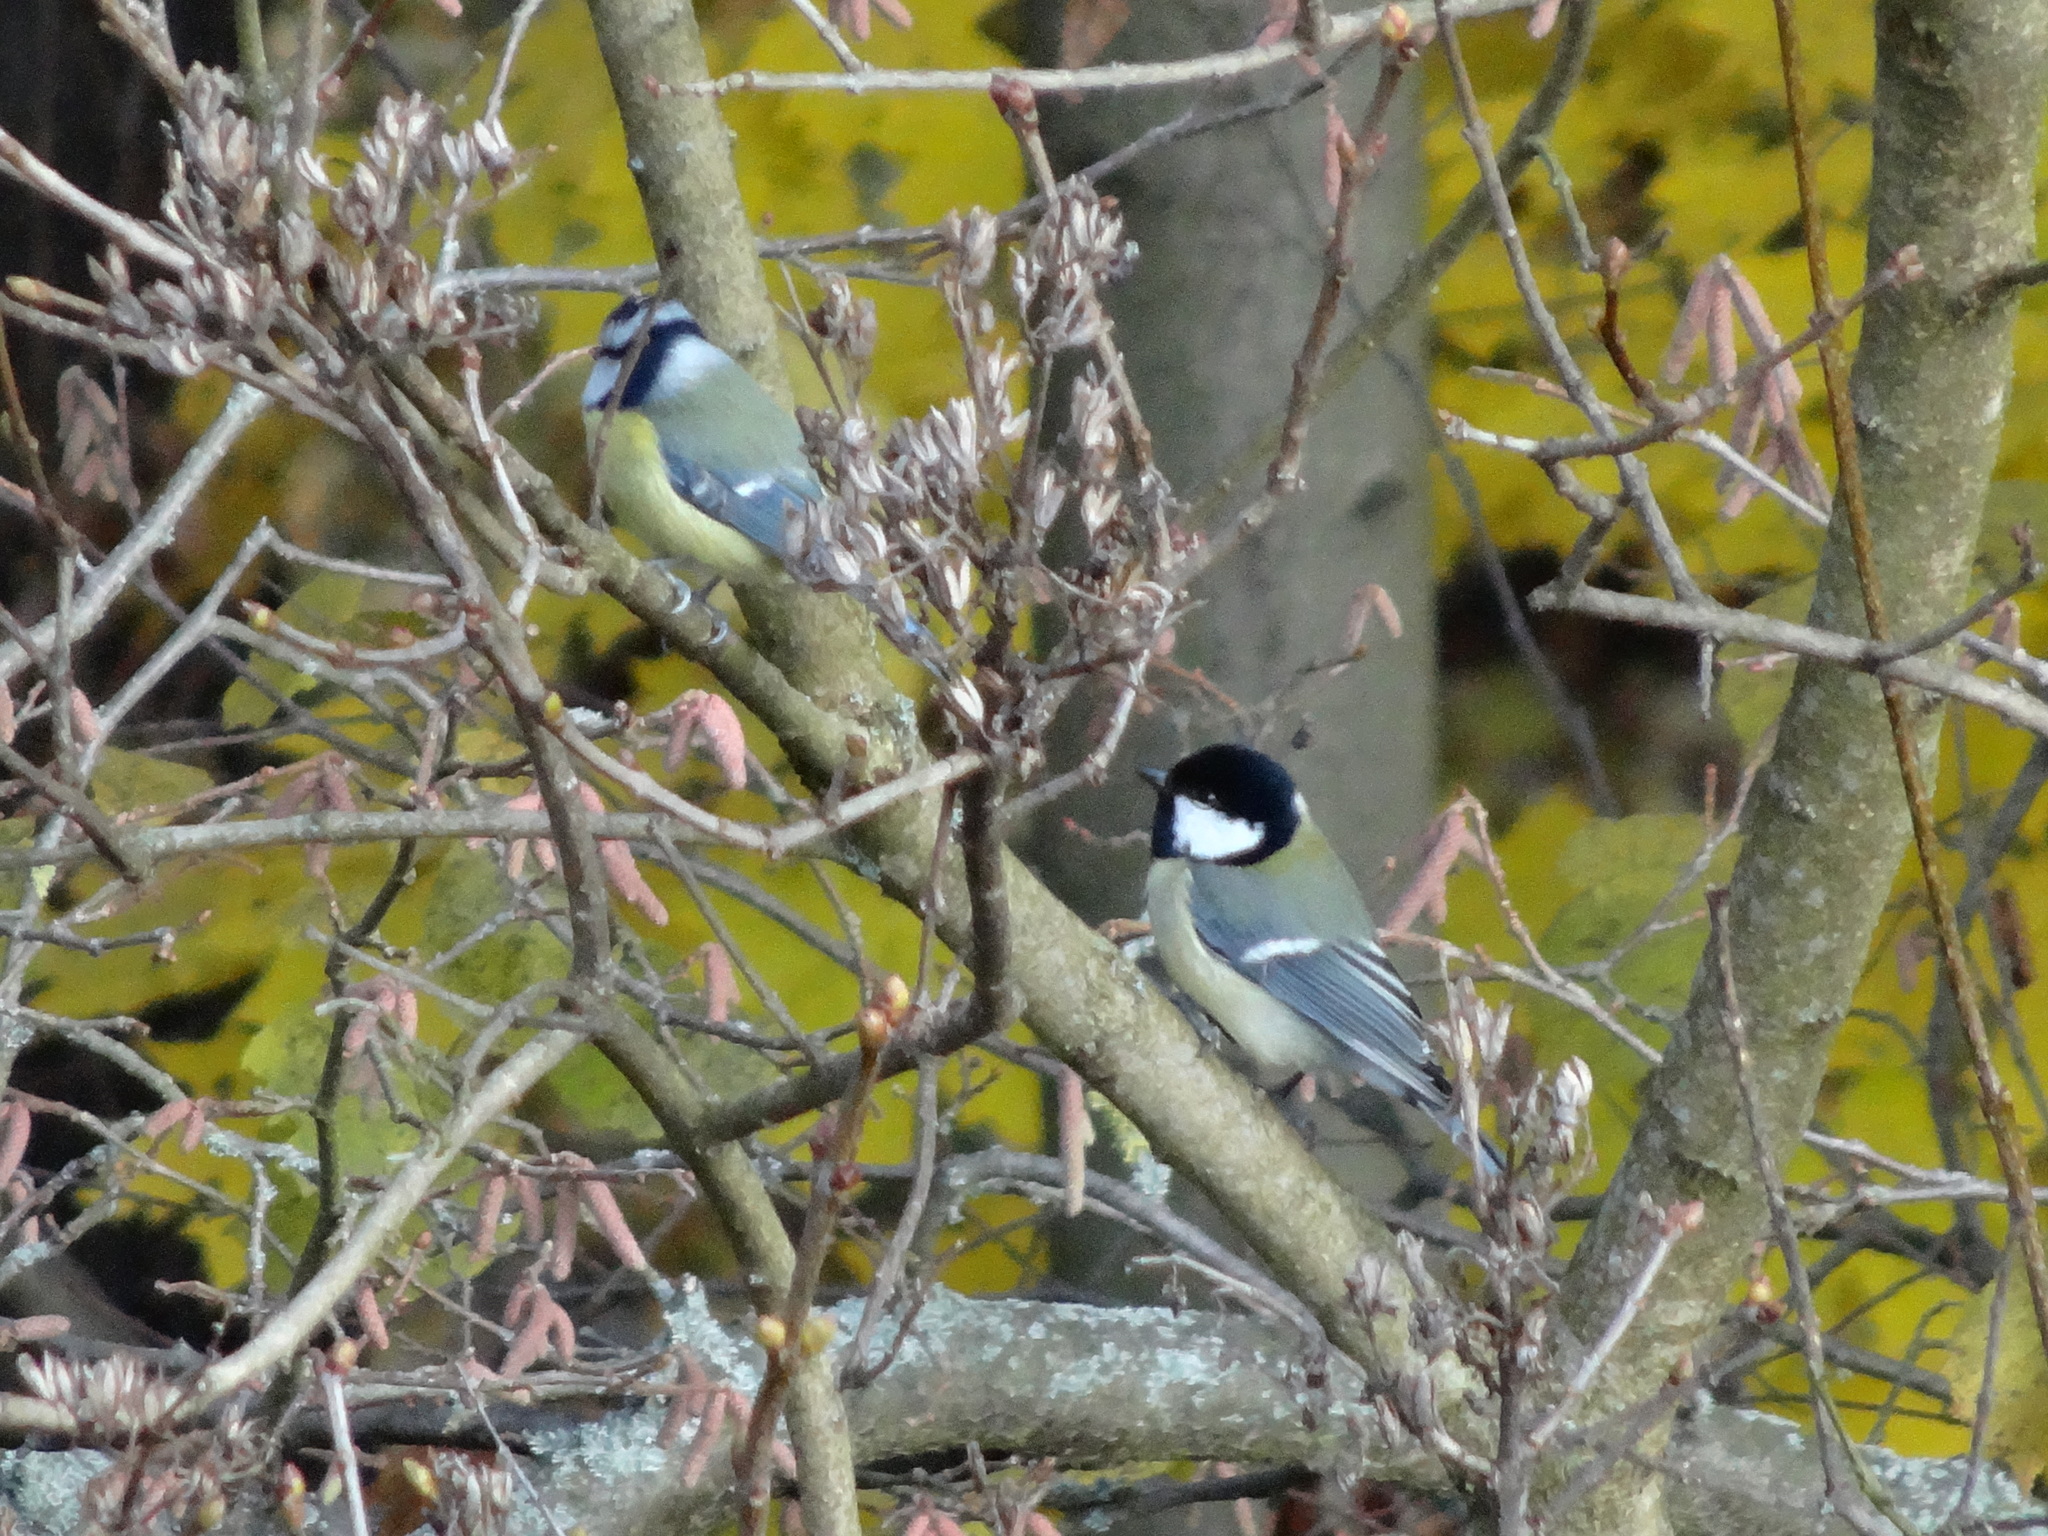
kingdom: Animalia
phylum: Chordata
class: Aves
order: Passeriformes
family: Paridae
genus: Parus
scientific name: Parus major
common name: Great tit
